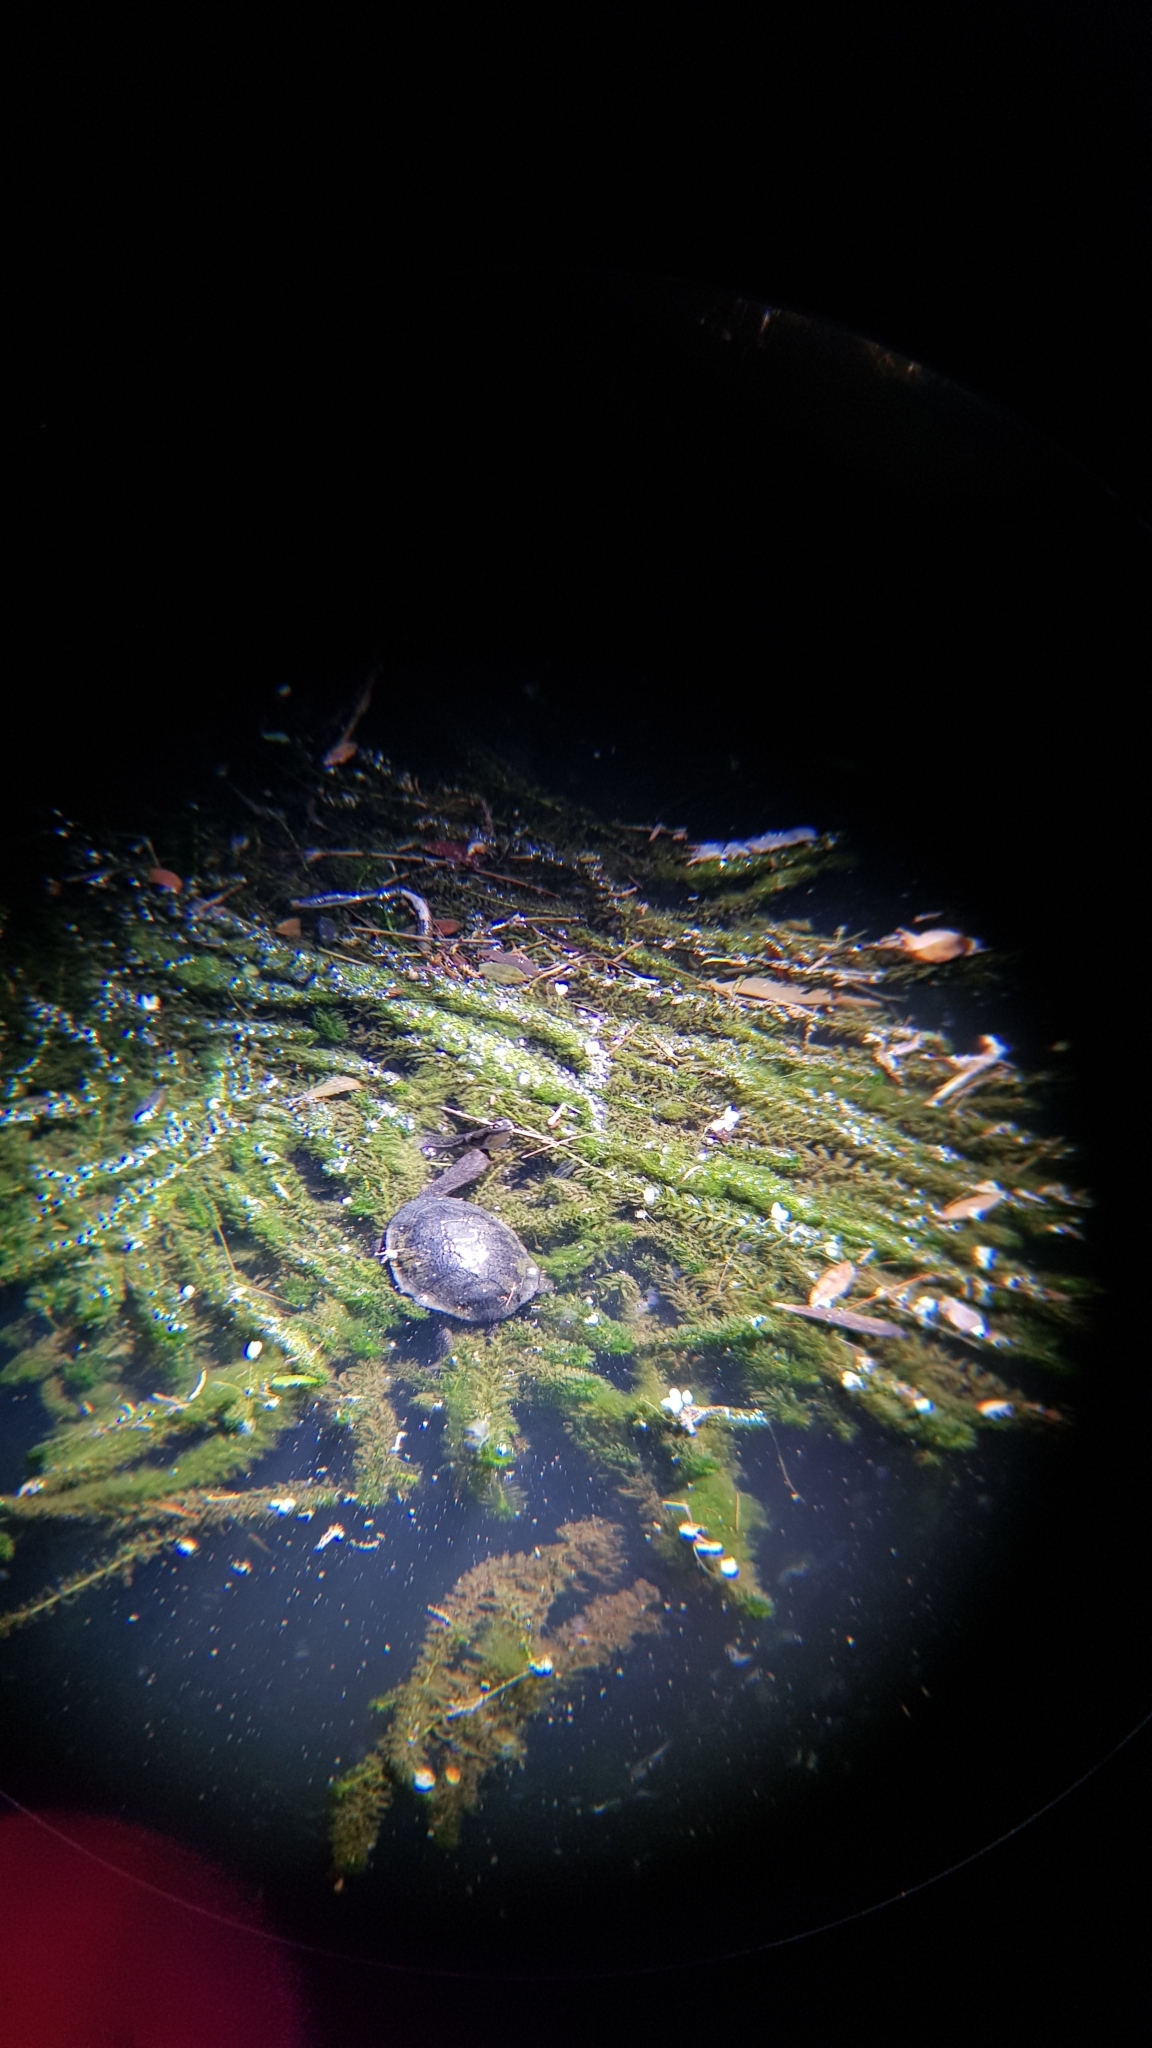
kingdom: Animalia
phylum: Chordata
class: Testudines
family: Chelidae
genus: Chelodina
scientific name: Chelodina longicollis
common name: Eastern snake-necked turtle
